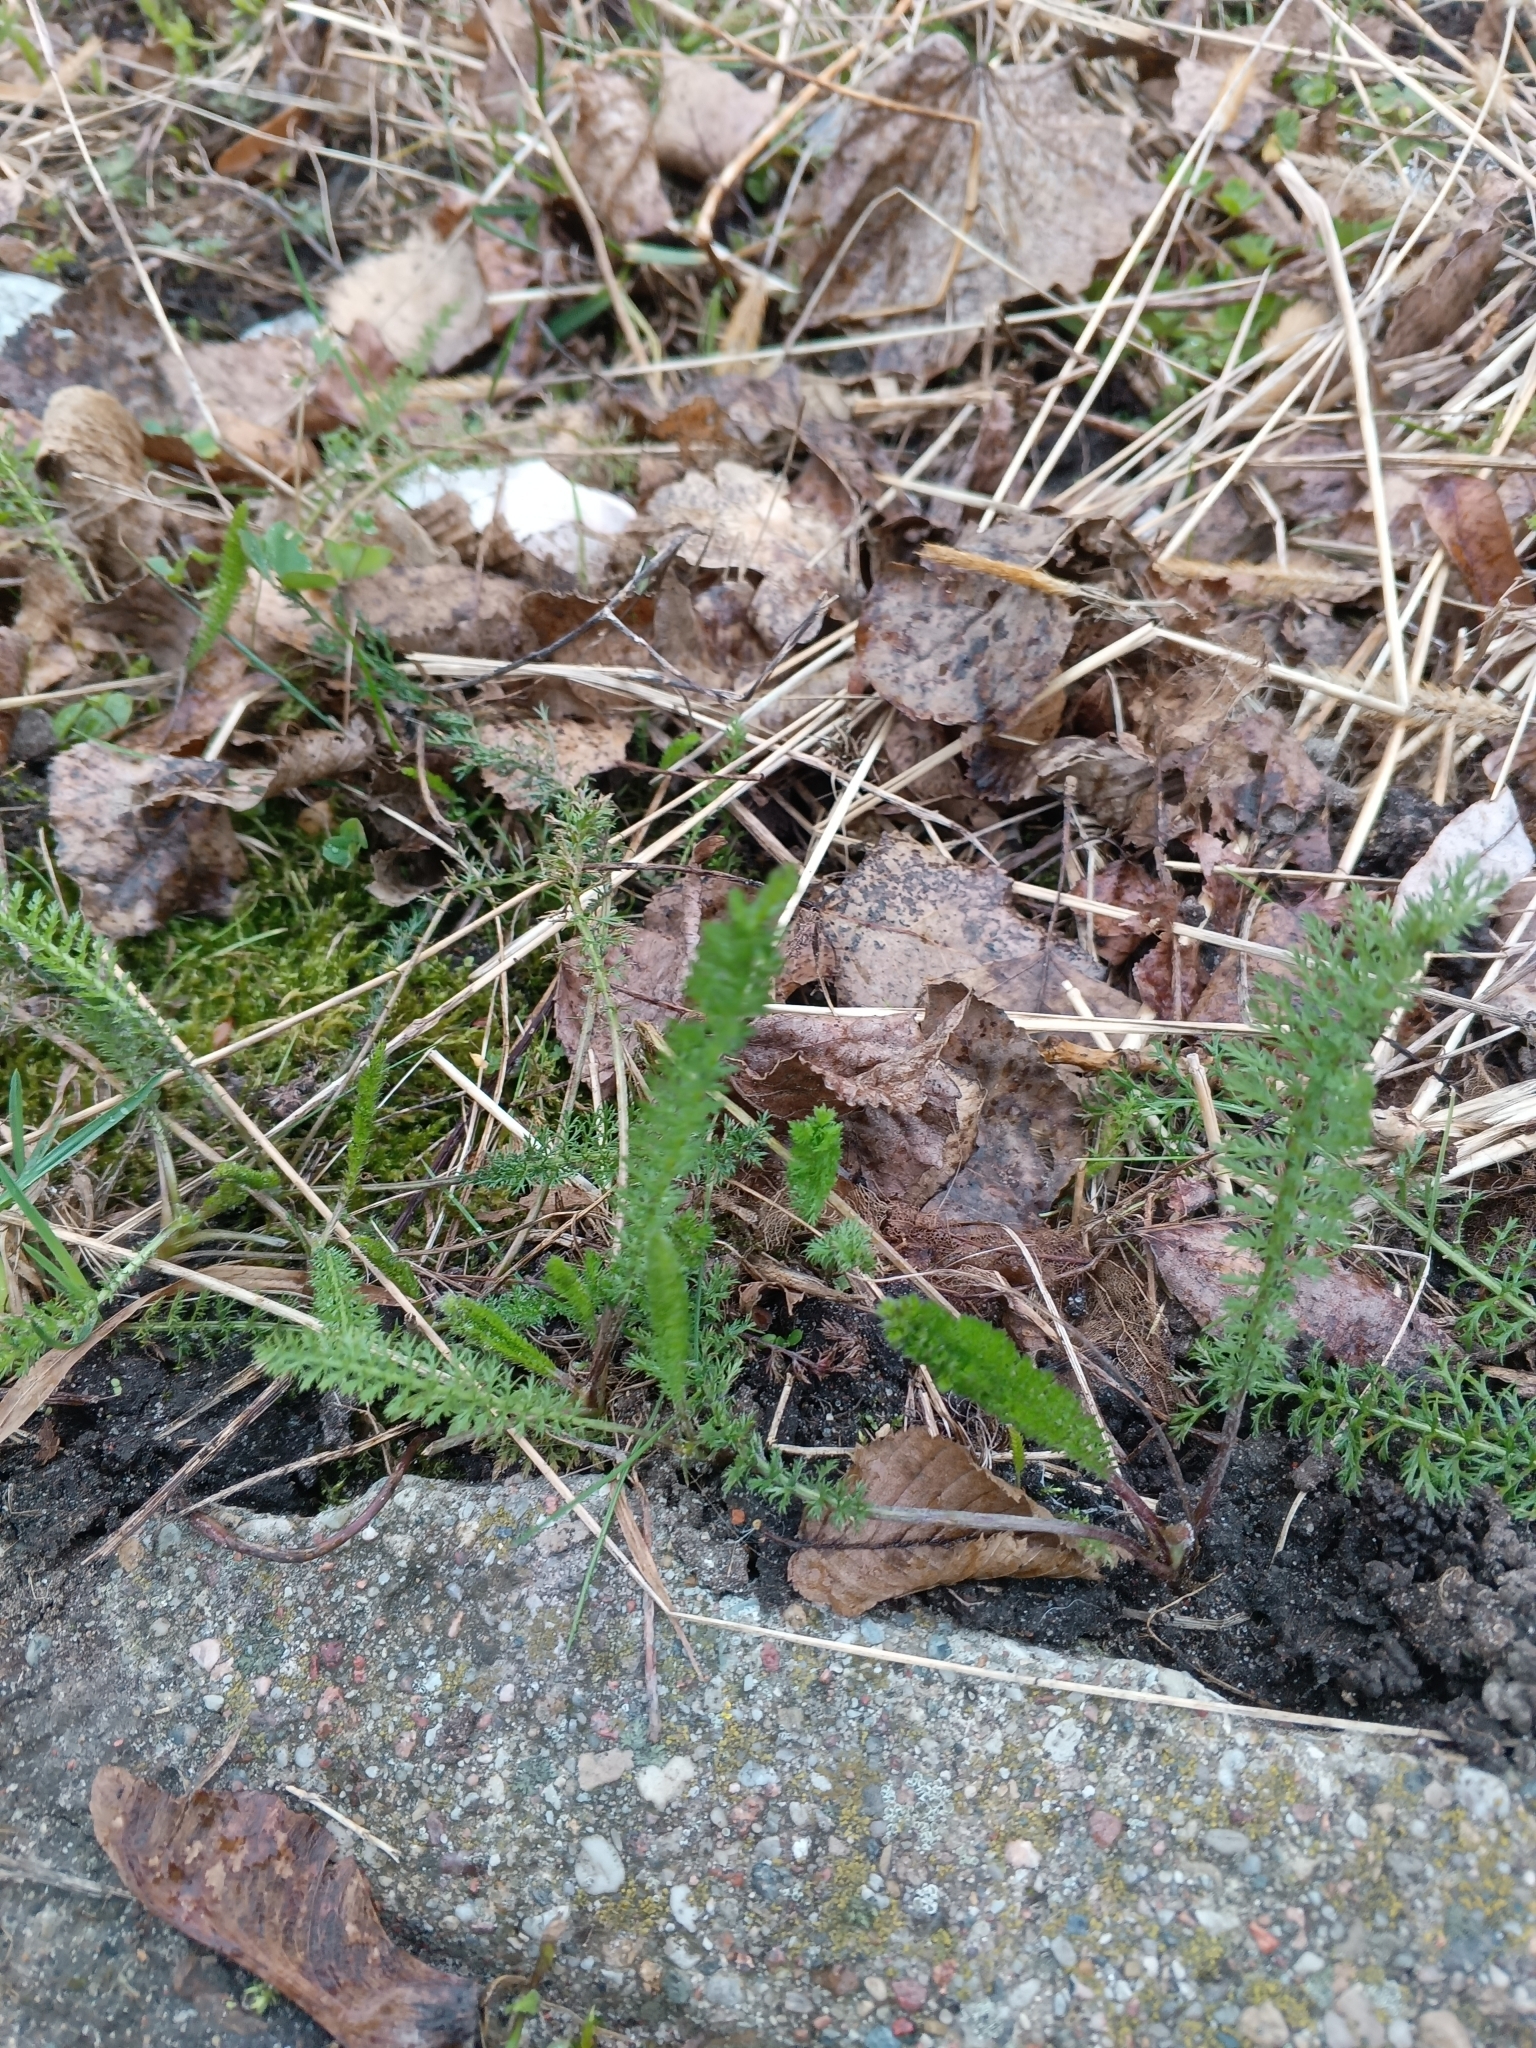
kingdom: Plantae
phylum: Tracheophyta
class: Magnoliopsida
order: Asterales
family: Asteraceae
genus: Achillea
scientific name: Achillea millefolium
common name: Yarrow
